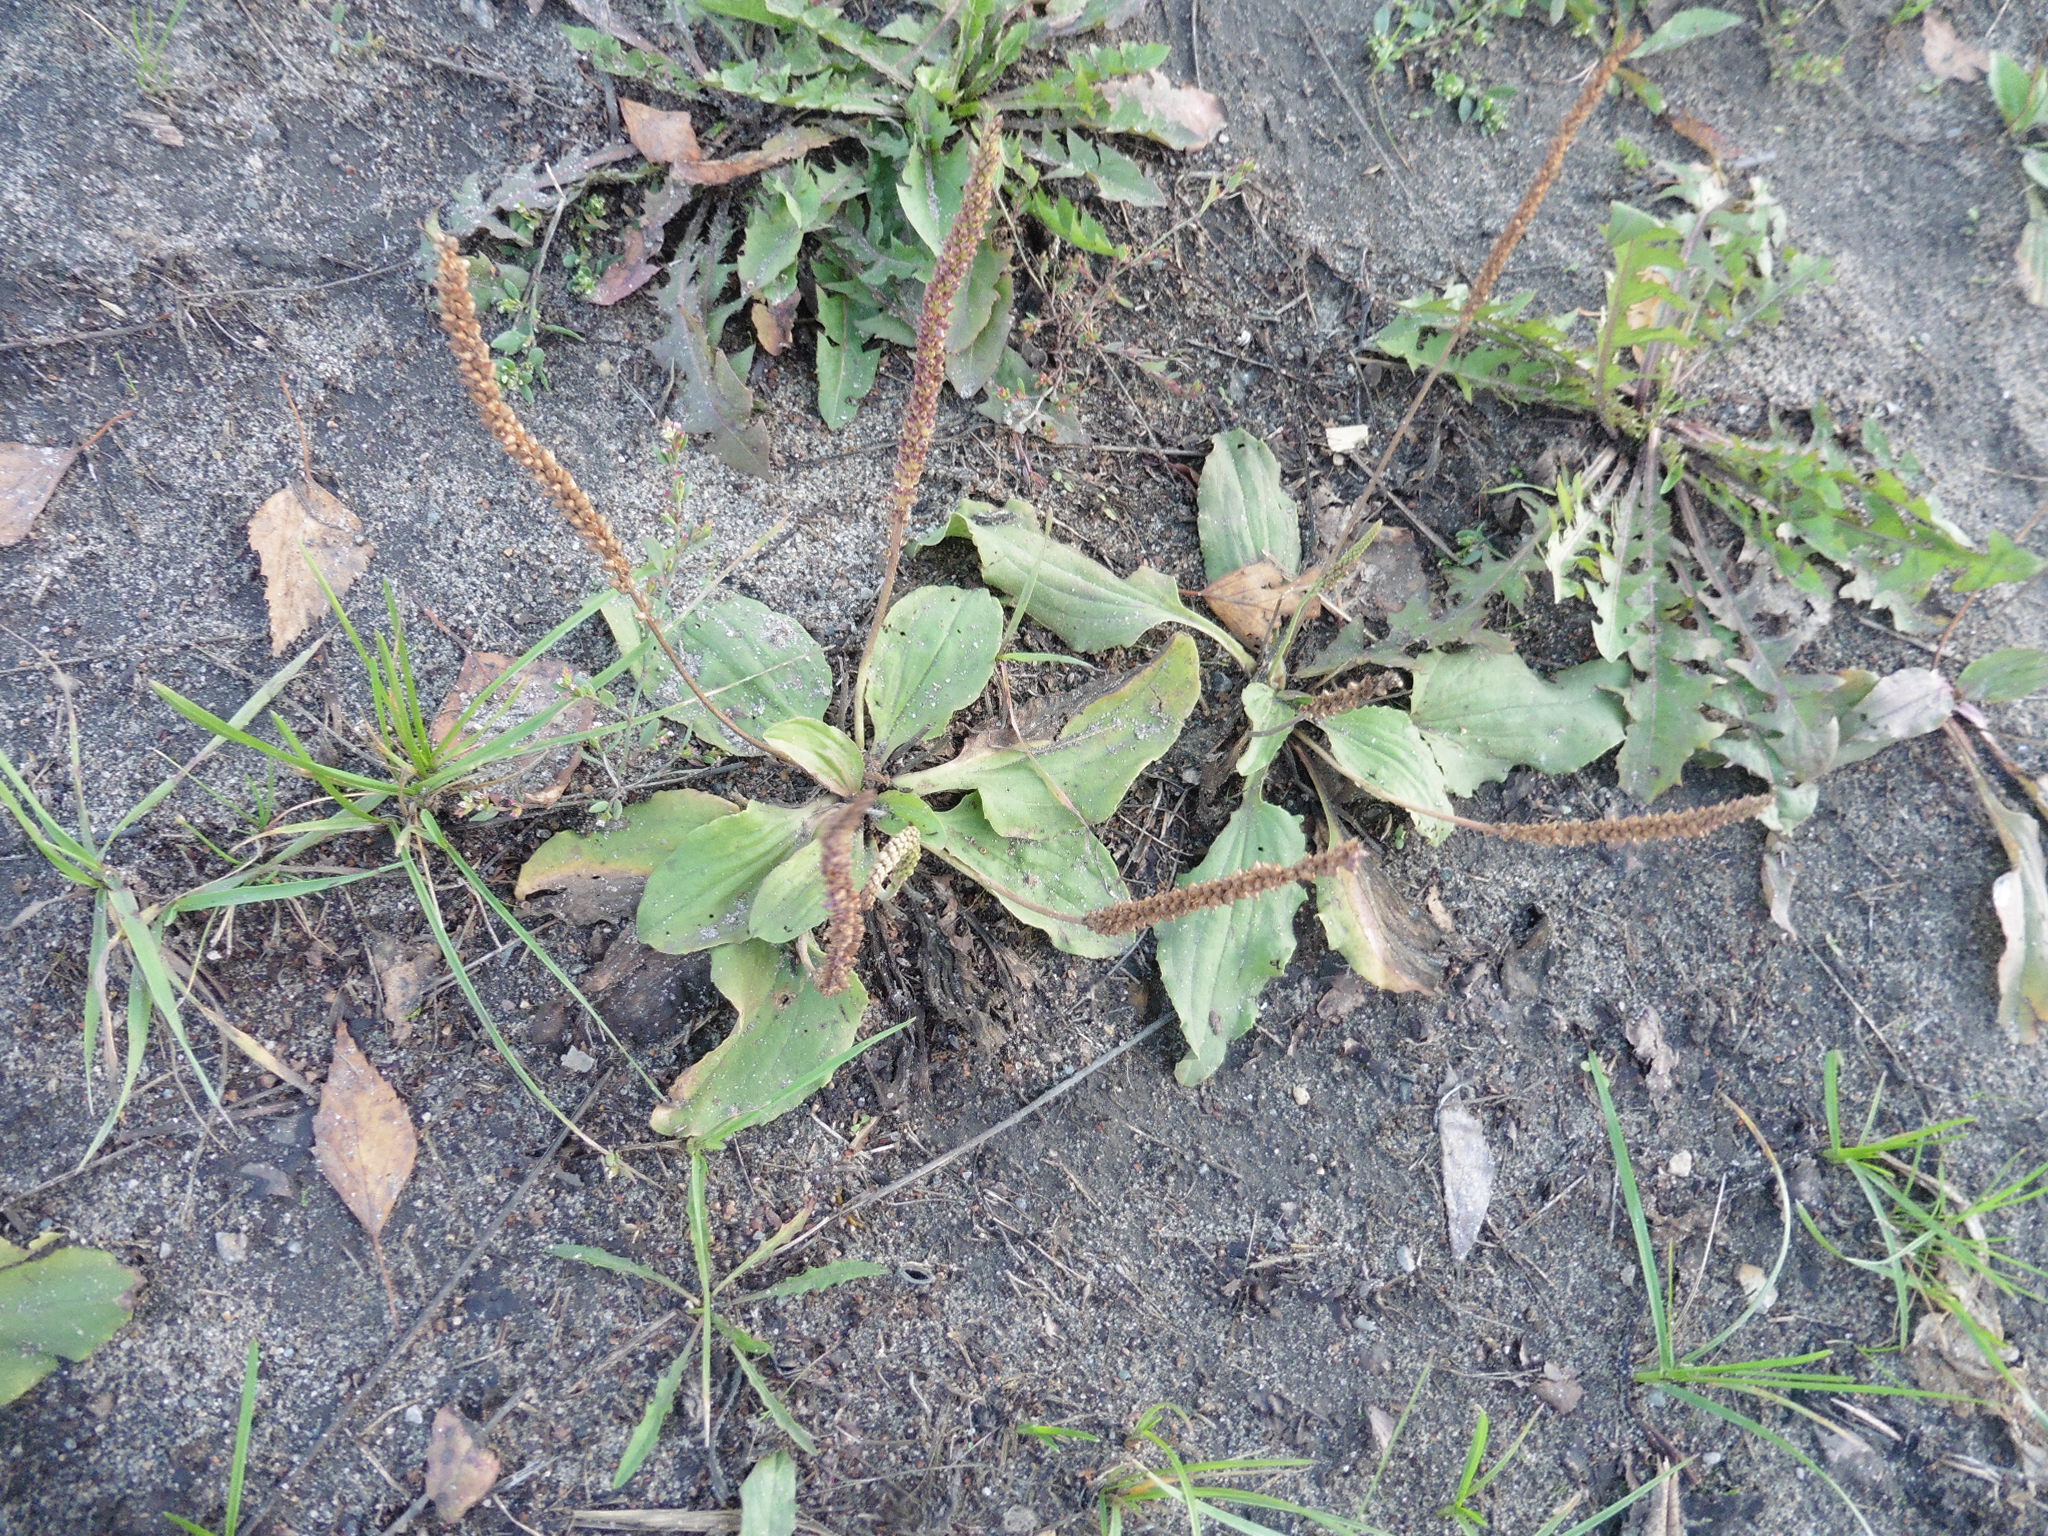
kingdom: Plantae
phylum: Tracheophyta
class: Magnoliopsida
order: Lamiales
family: Plantaginaceae
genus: Plantago
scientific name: Plantago major
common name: Common plantain
